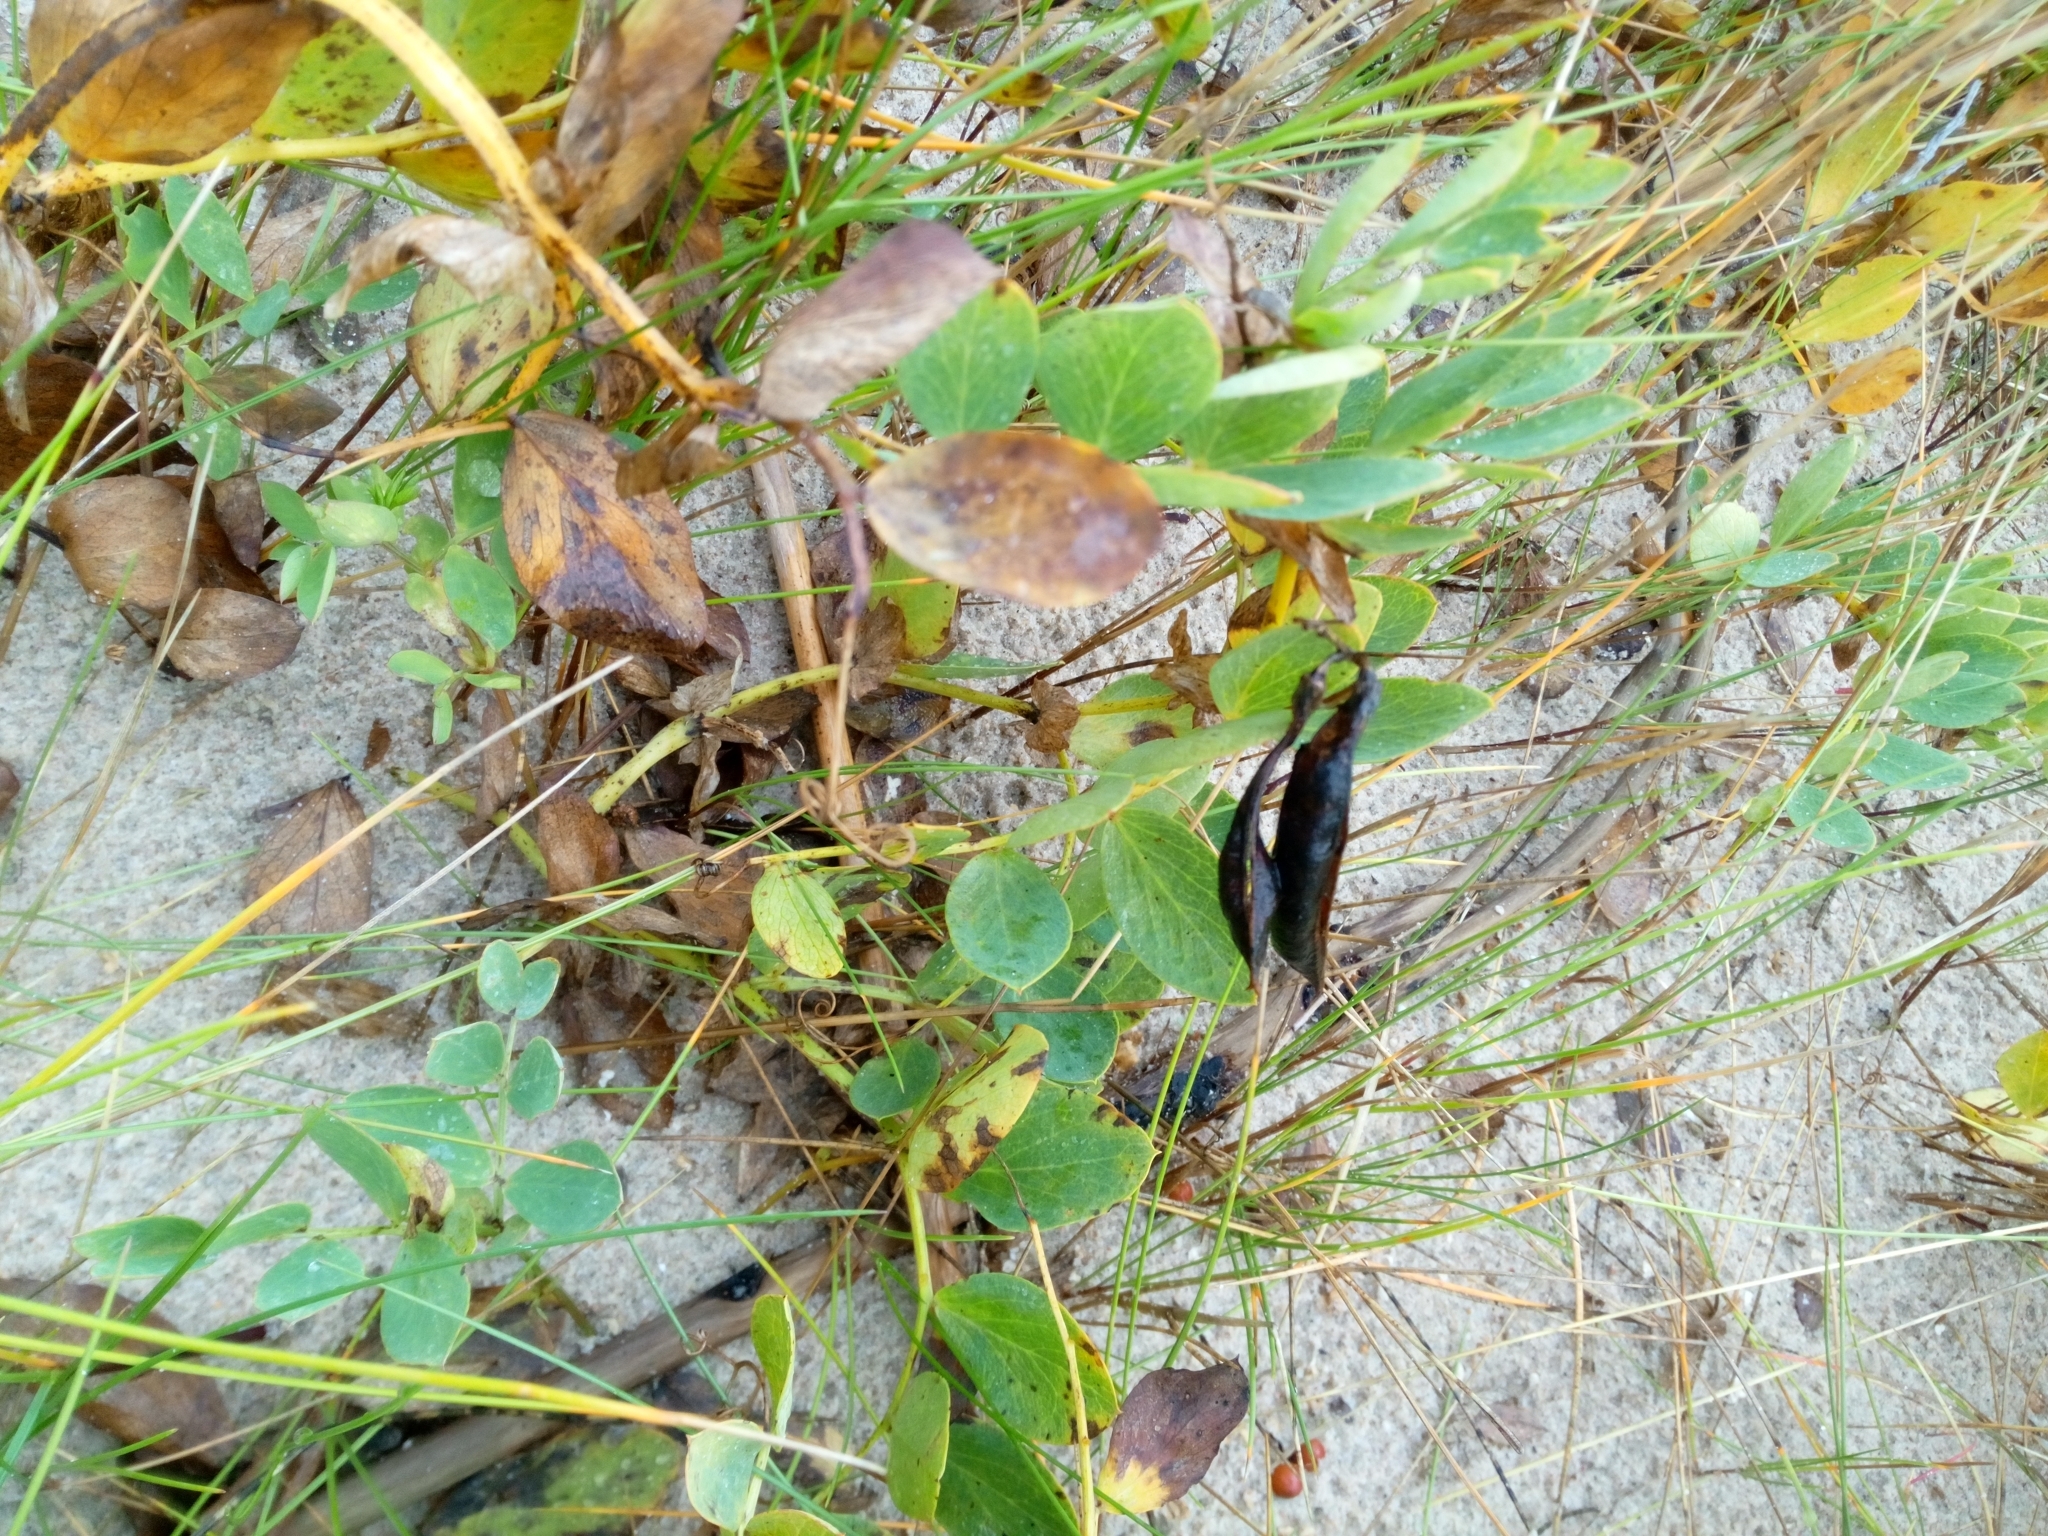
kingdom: Plantae
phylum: Tracheophyta
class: Magnoliopsida
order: Fabales
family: Fabaceae
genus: Lathyrus
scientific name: Lathyrus japonicus
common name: Sea pea
